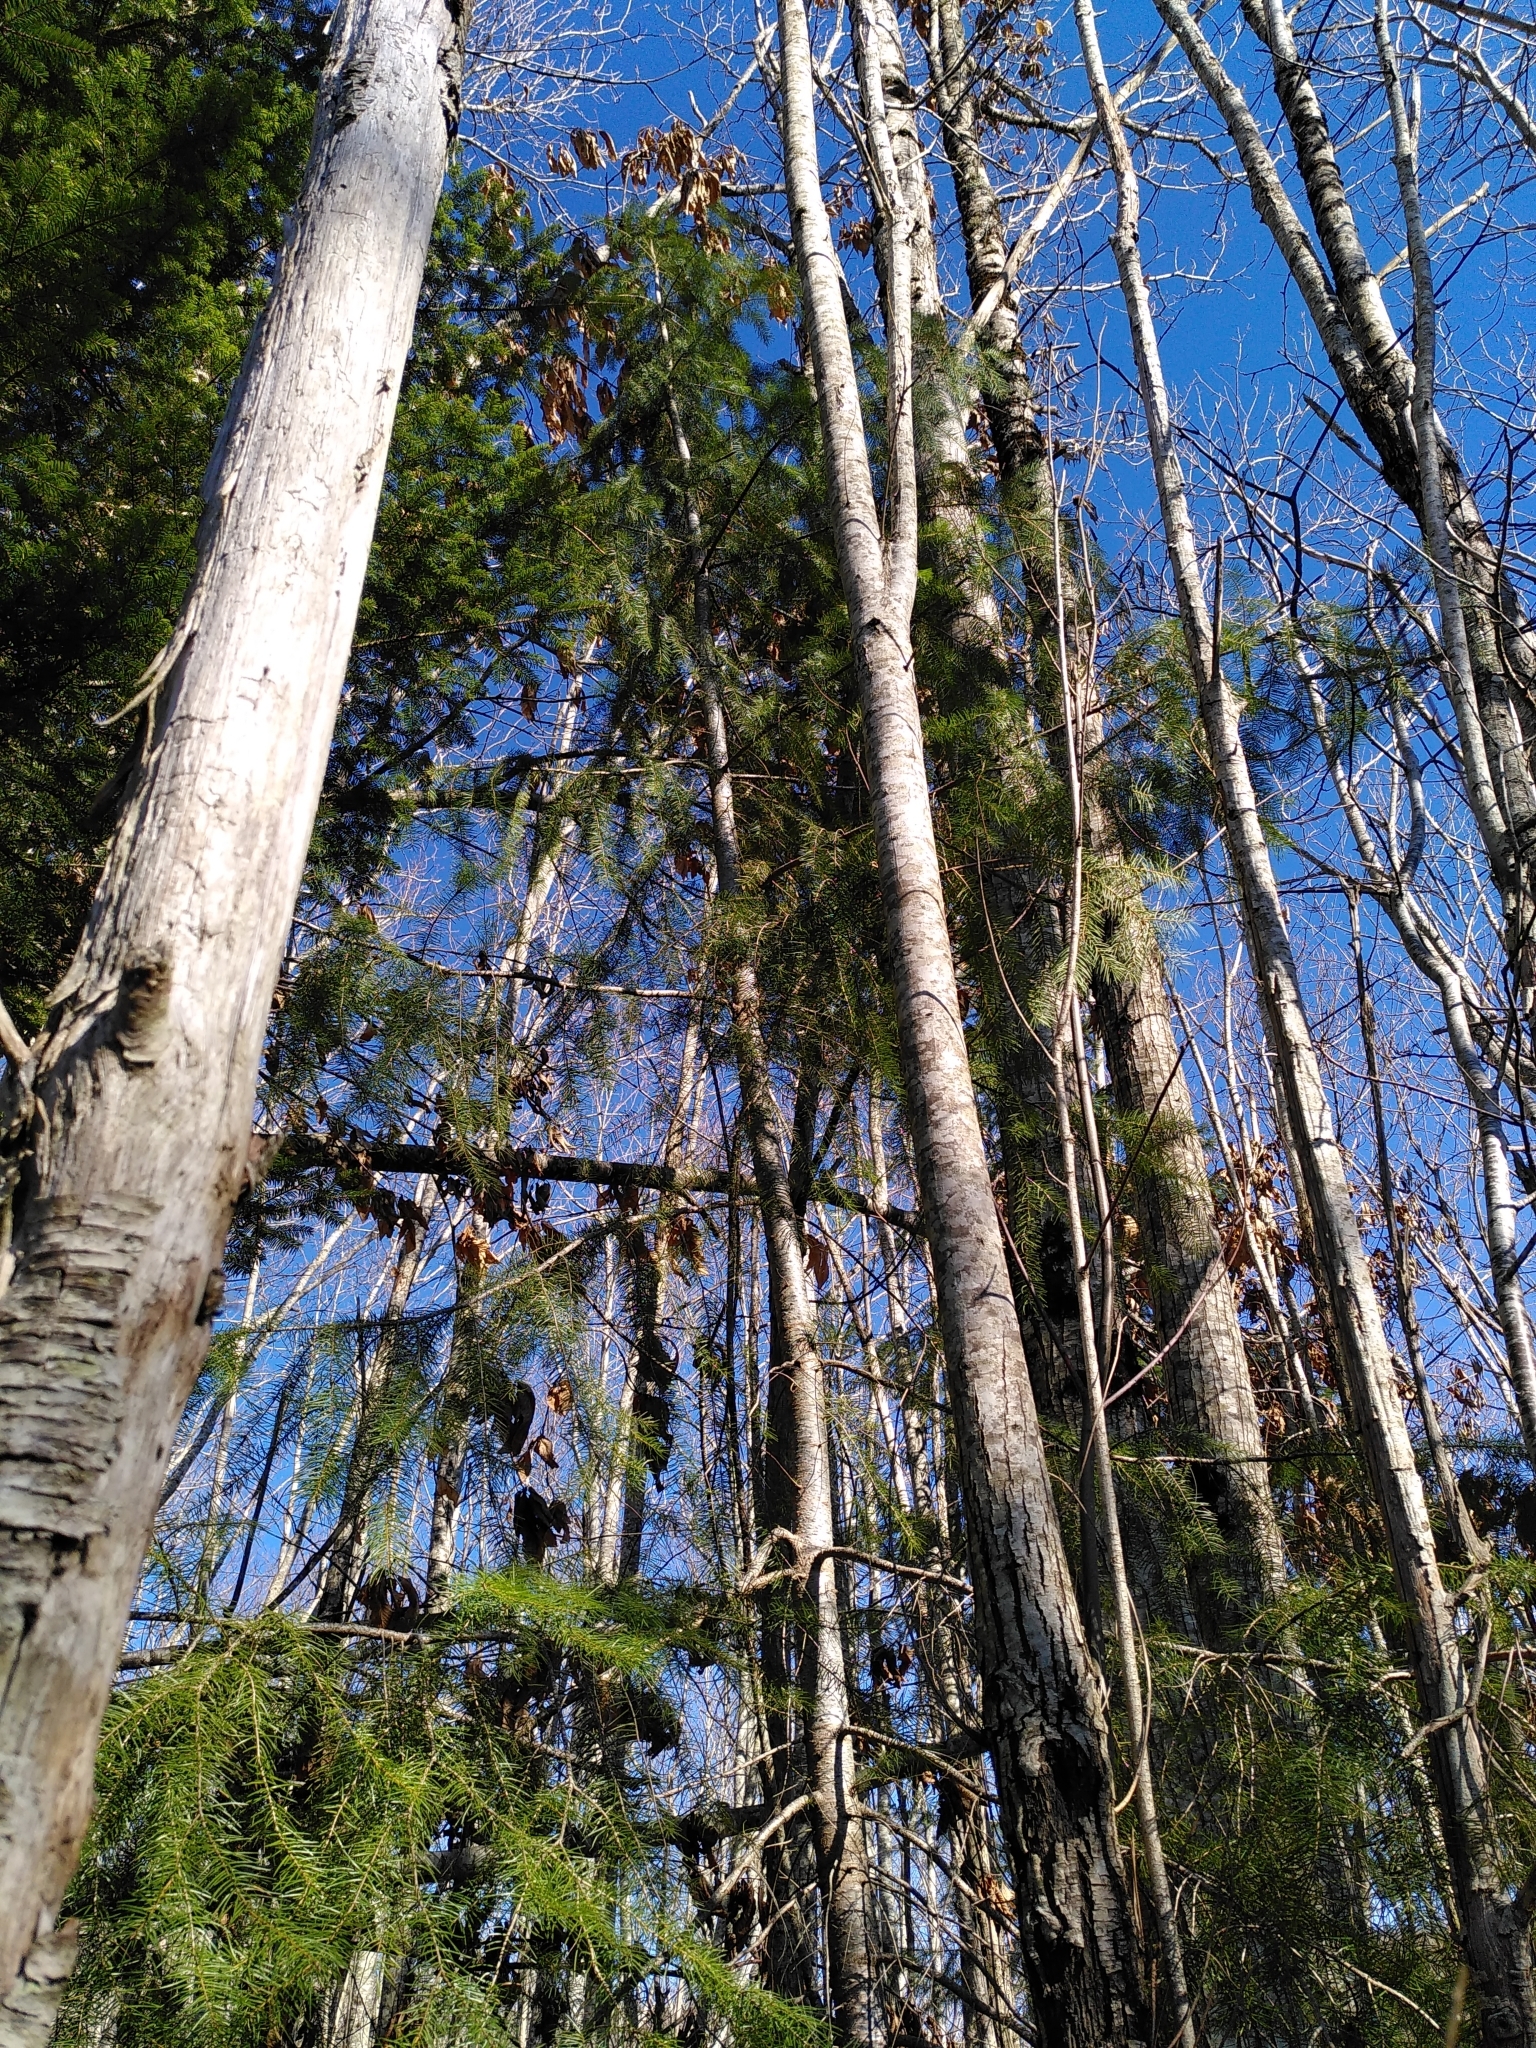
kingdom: Plantae
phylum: Tracheophyta
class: Pinopsida
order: Pinales
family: Pinaceae
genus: Pseudotsuga
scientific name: Pseudotsuga menziesii
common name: Douglas fir
